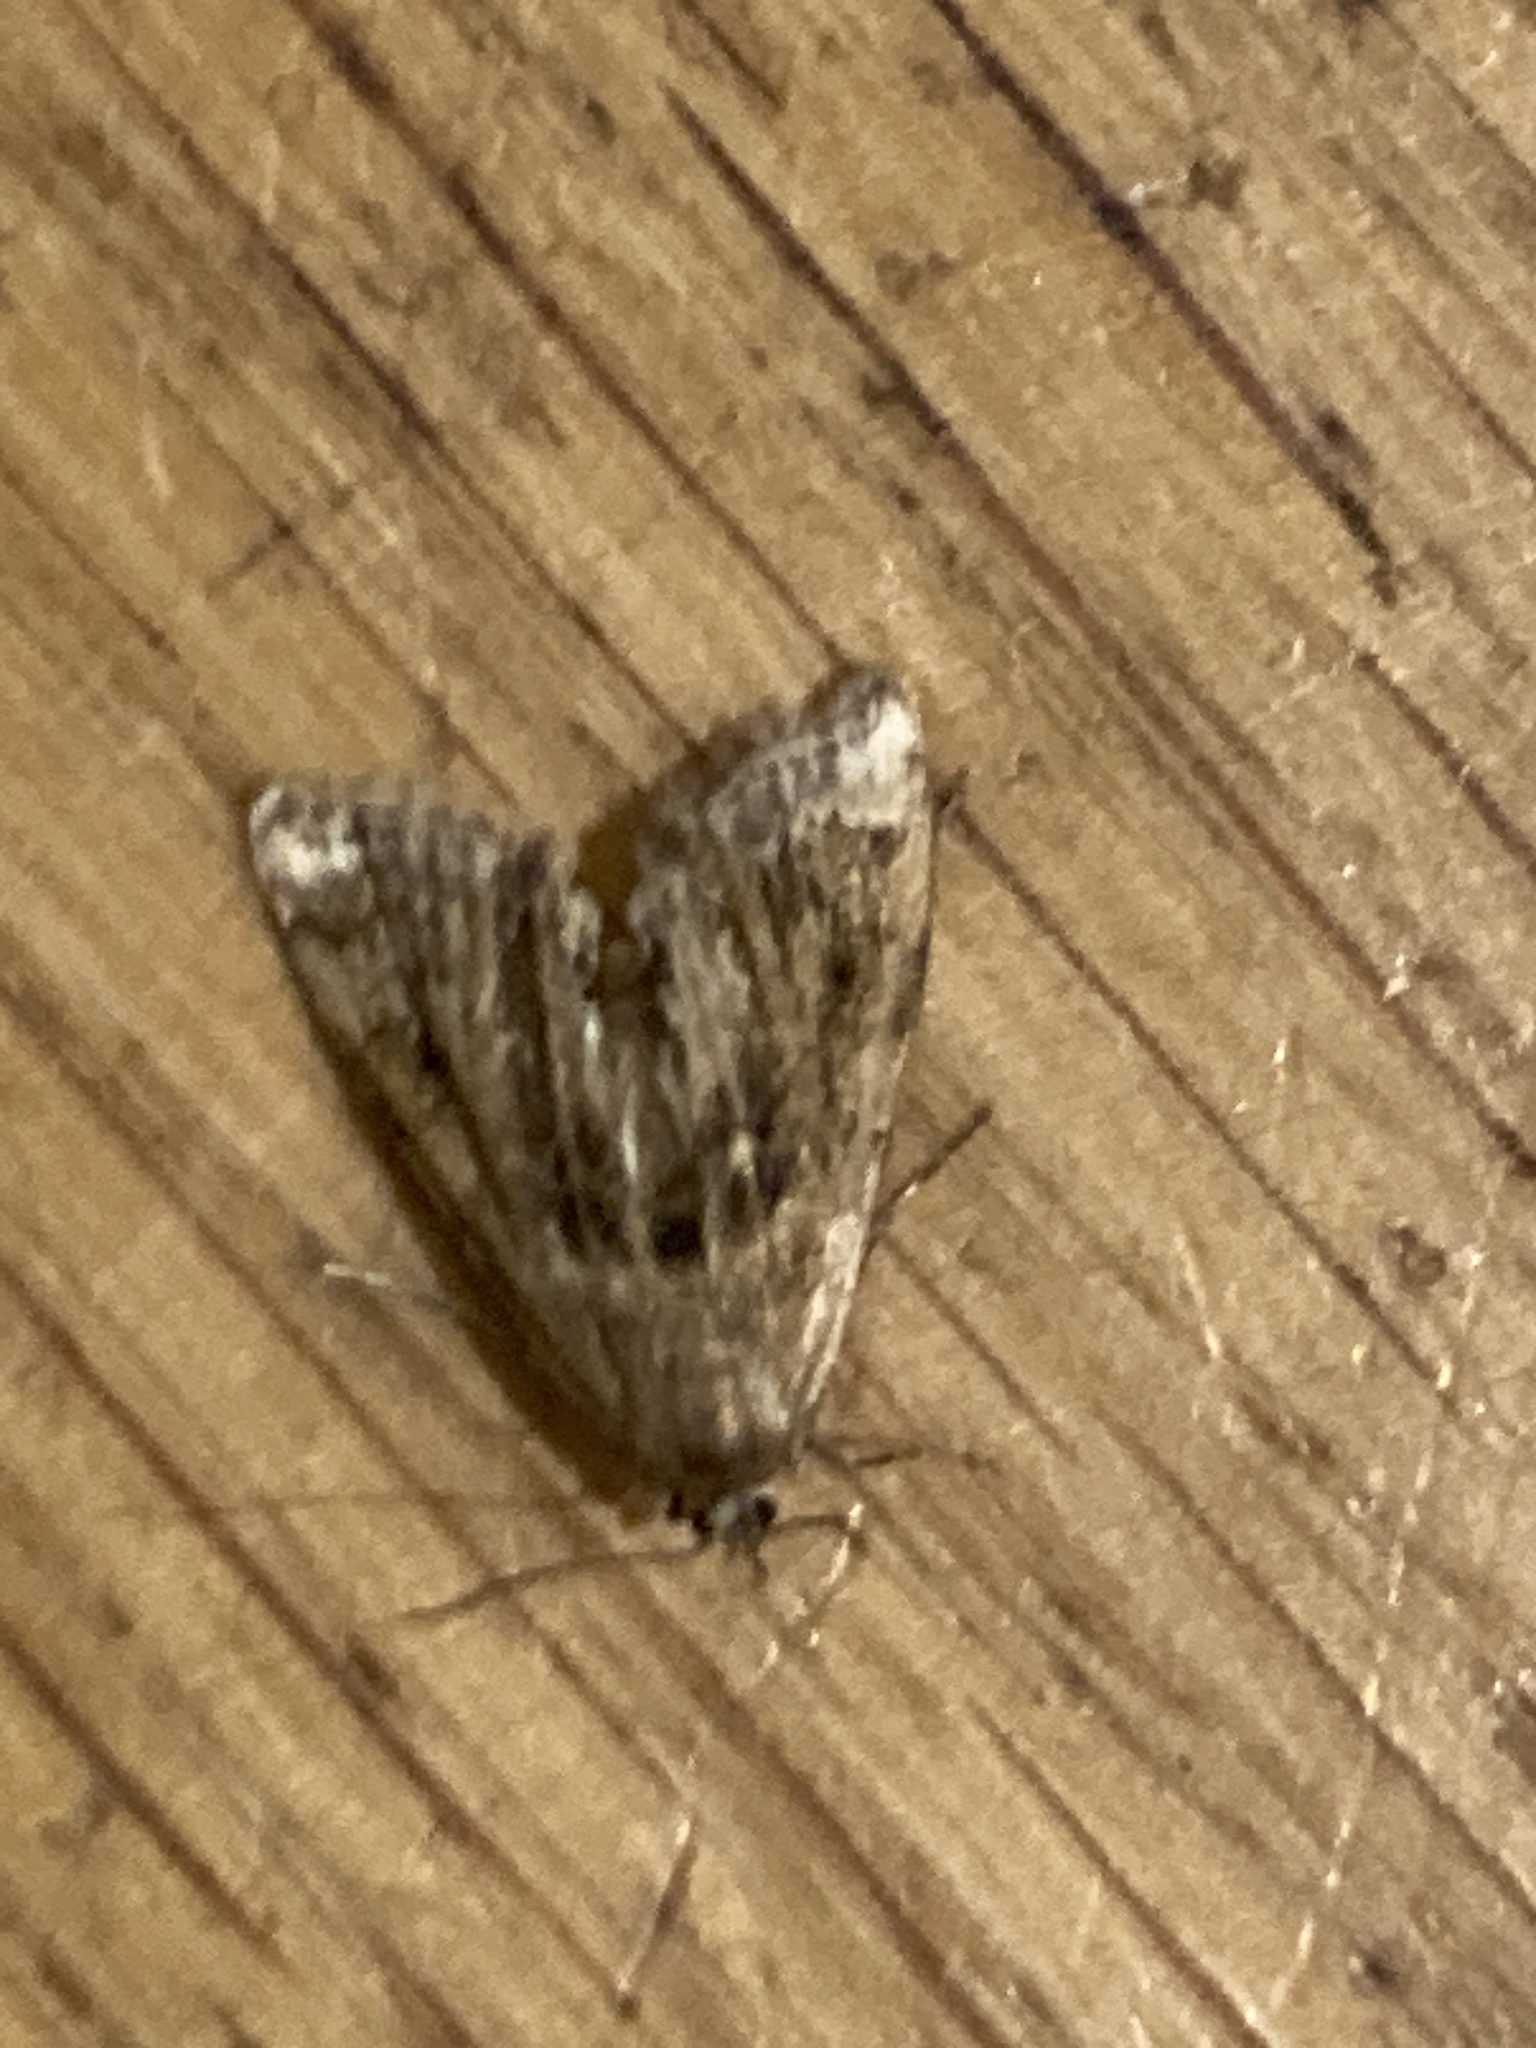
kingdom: Animalia
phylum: Arthropoda
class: Insecta
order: Lepidoptera
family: Crambidae
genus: Cataclysta
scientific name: Cataclysta lemnata
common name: Small china-mark
